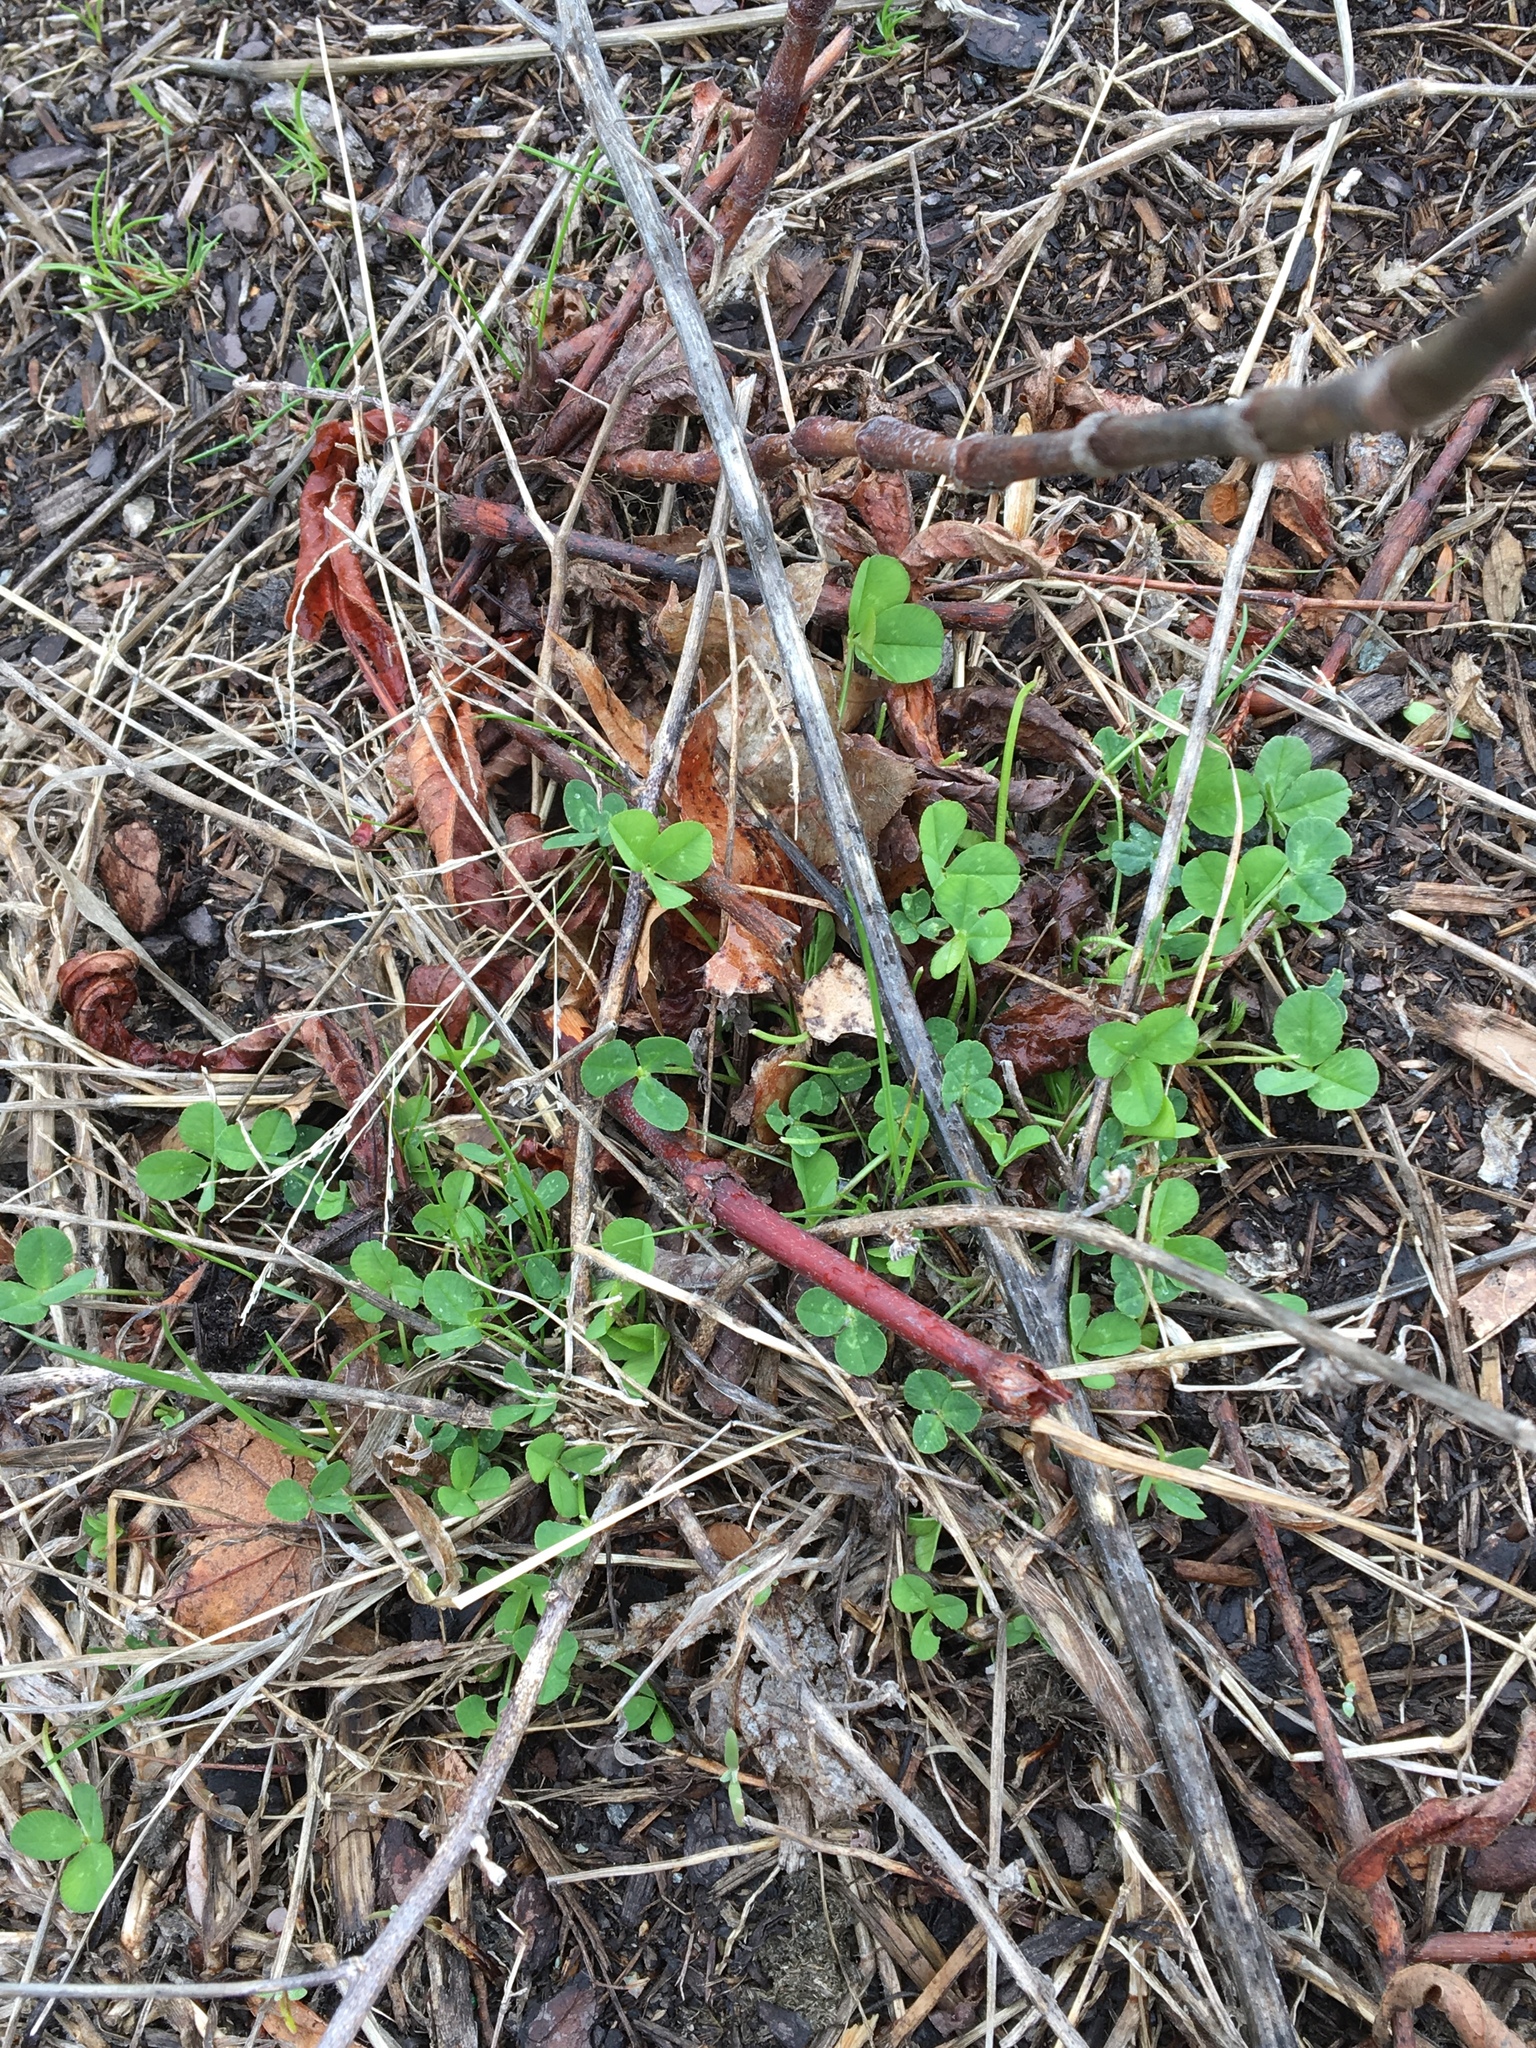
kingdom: Plantae
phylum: Tracheophyta
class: Magnoliopsida
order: Fabales
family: Fabaceae
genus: Trifolium
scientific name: Trifolium repens
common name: White clover
